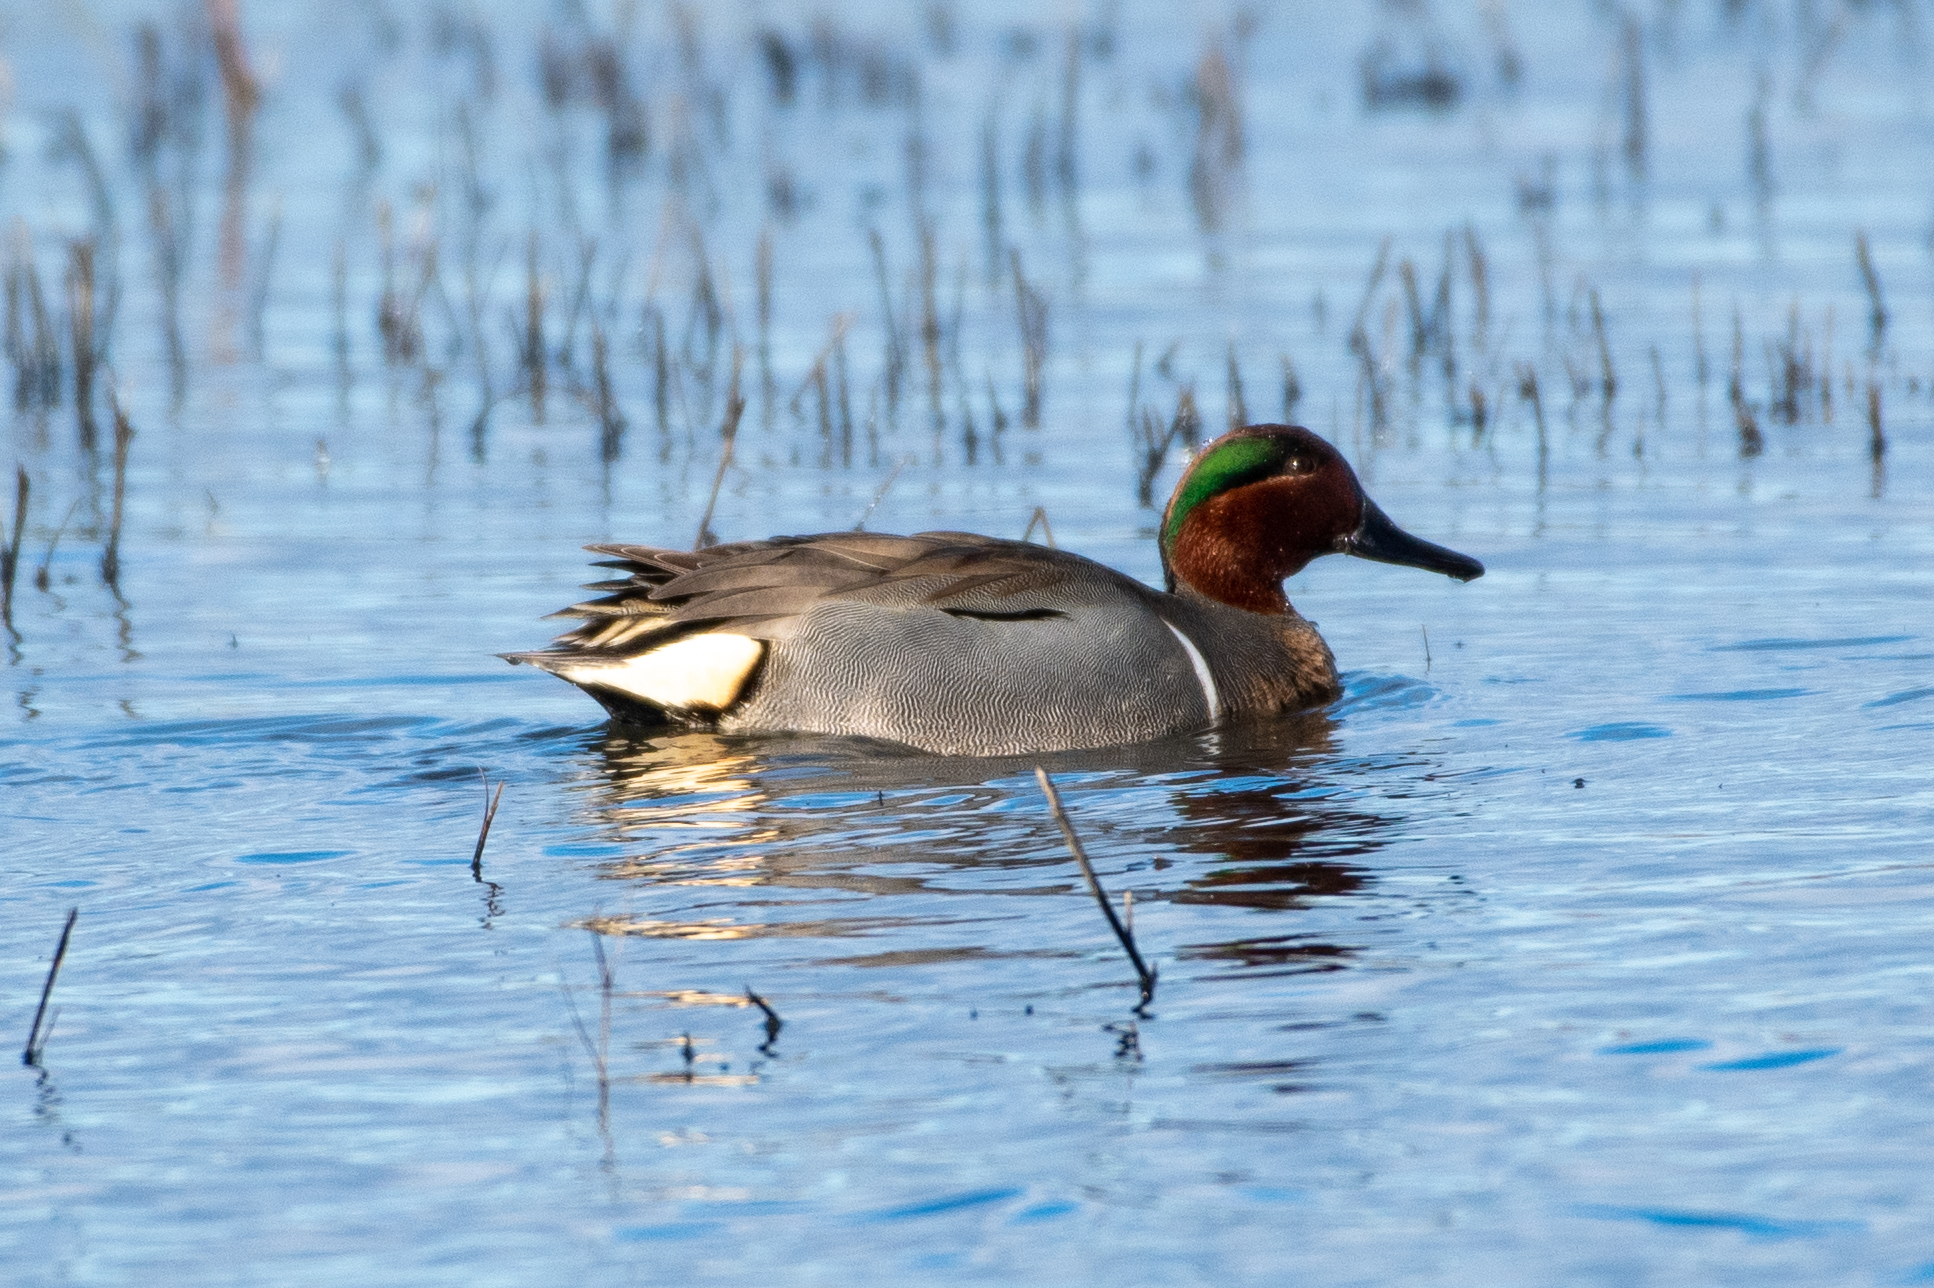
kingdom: Animalia
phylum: Chordata
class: Aves
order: Anseriformes
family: Anatidae
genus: Anas
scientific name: Anas crecca
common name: Eurasian teal
